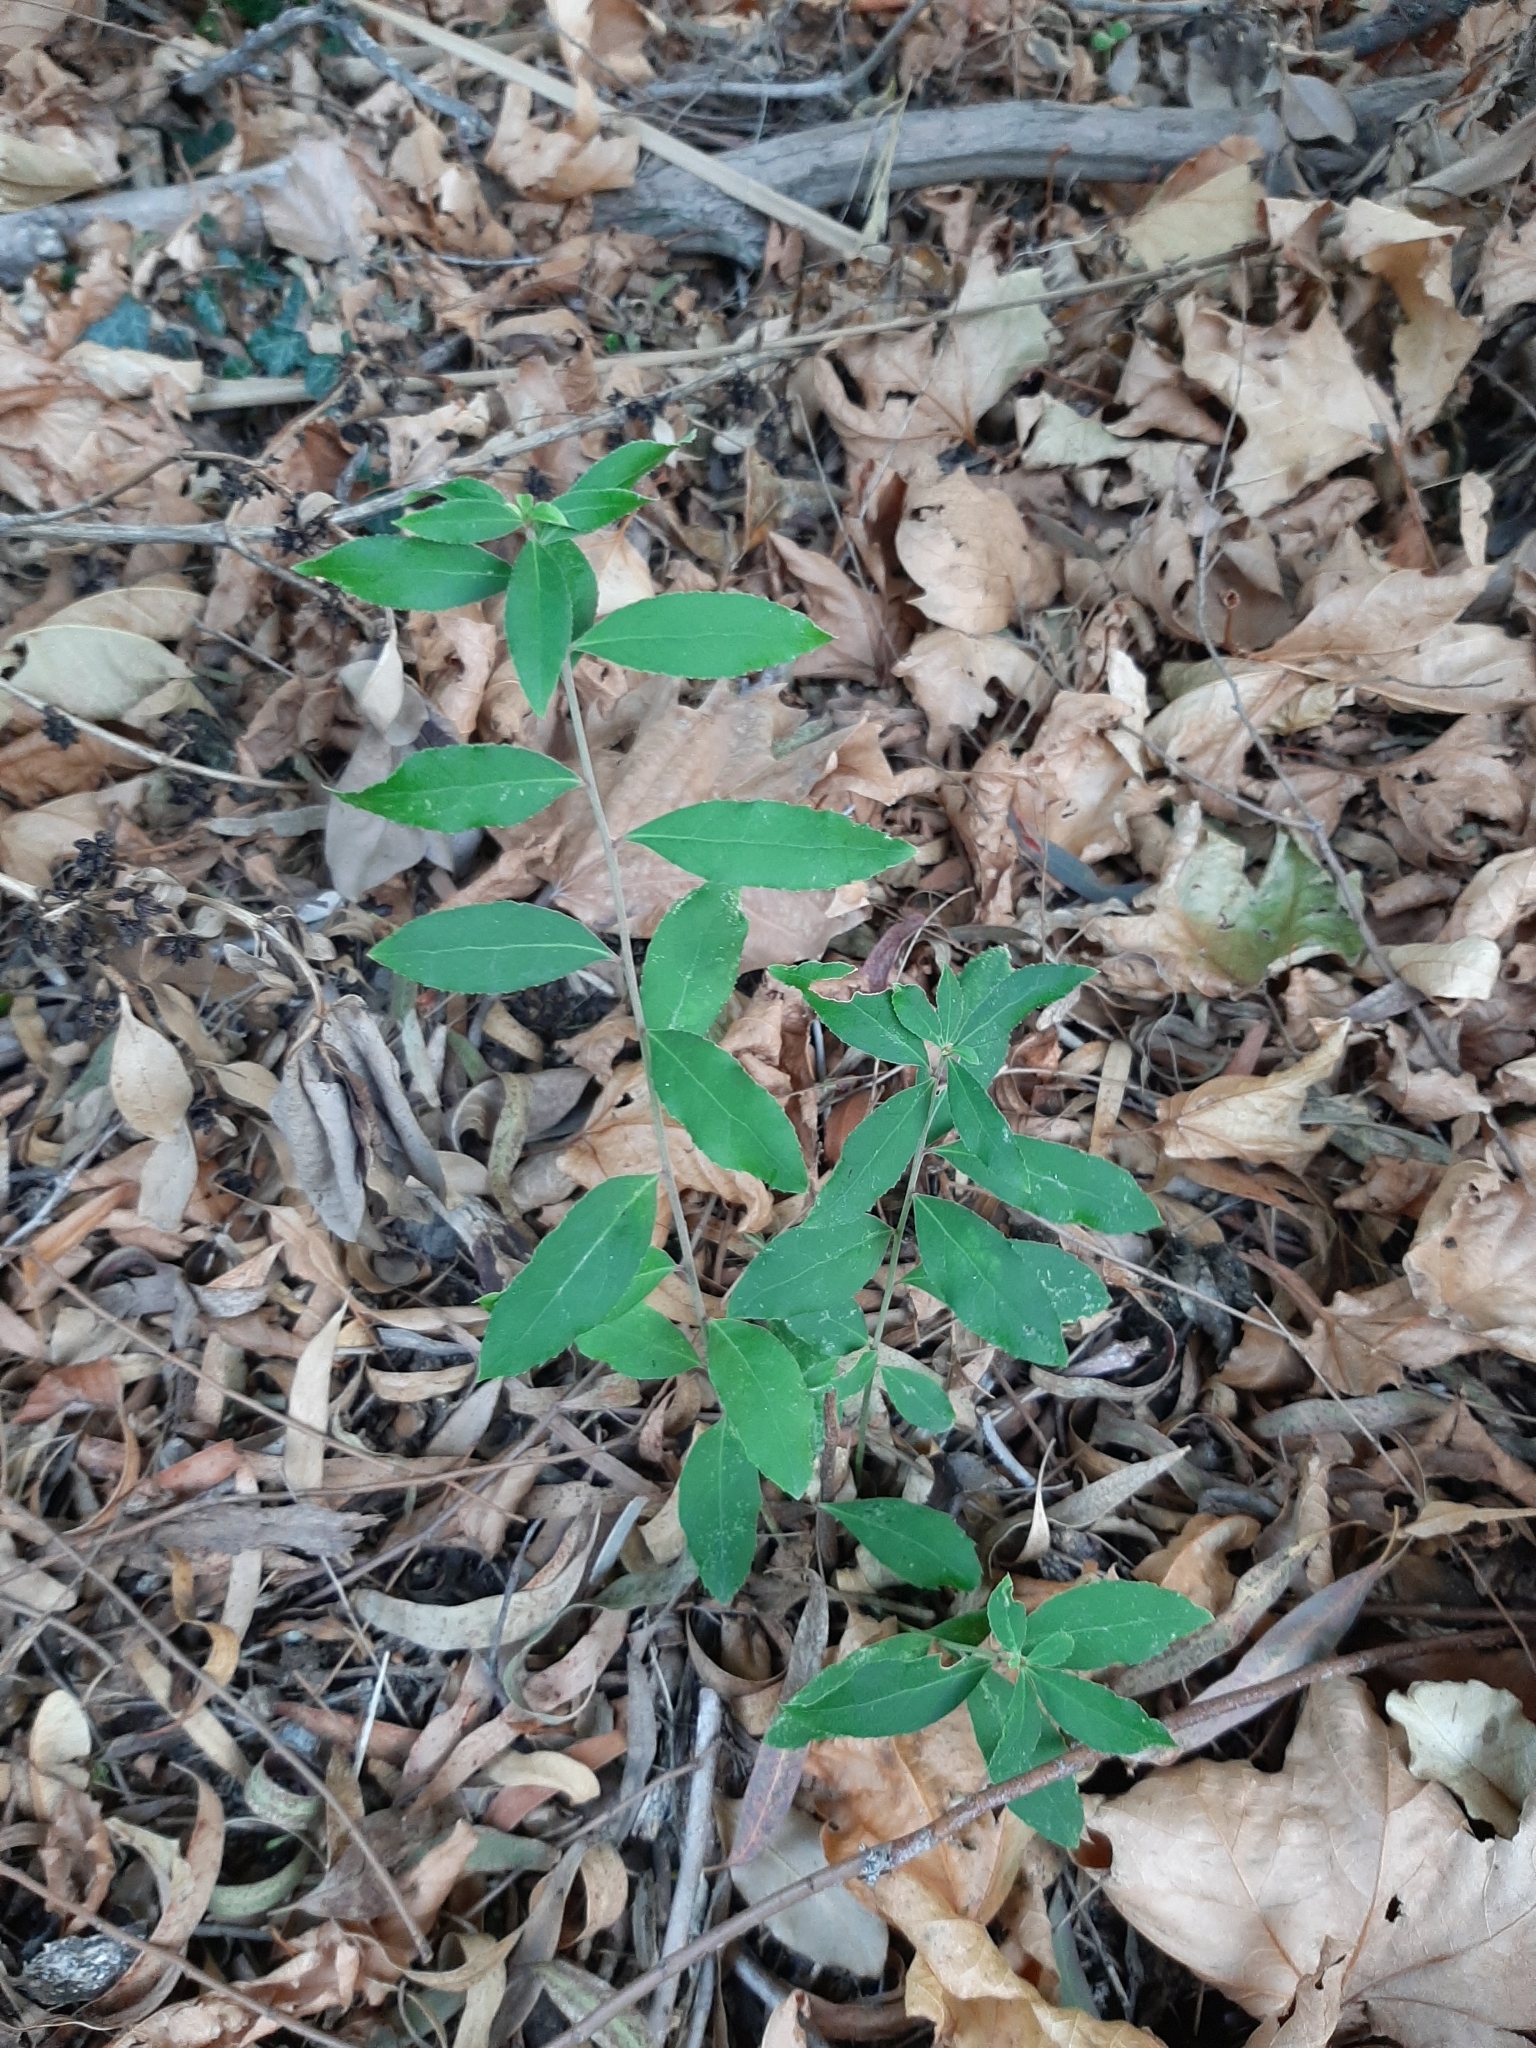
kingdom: Plantae
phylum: Tracheophyta
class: Magnoliopsida
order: Celastrales
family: Celastraceae
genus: Maytenus
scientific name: Maytenus boaria
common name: Mayten
